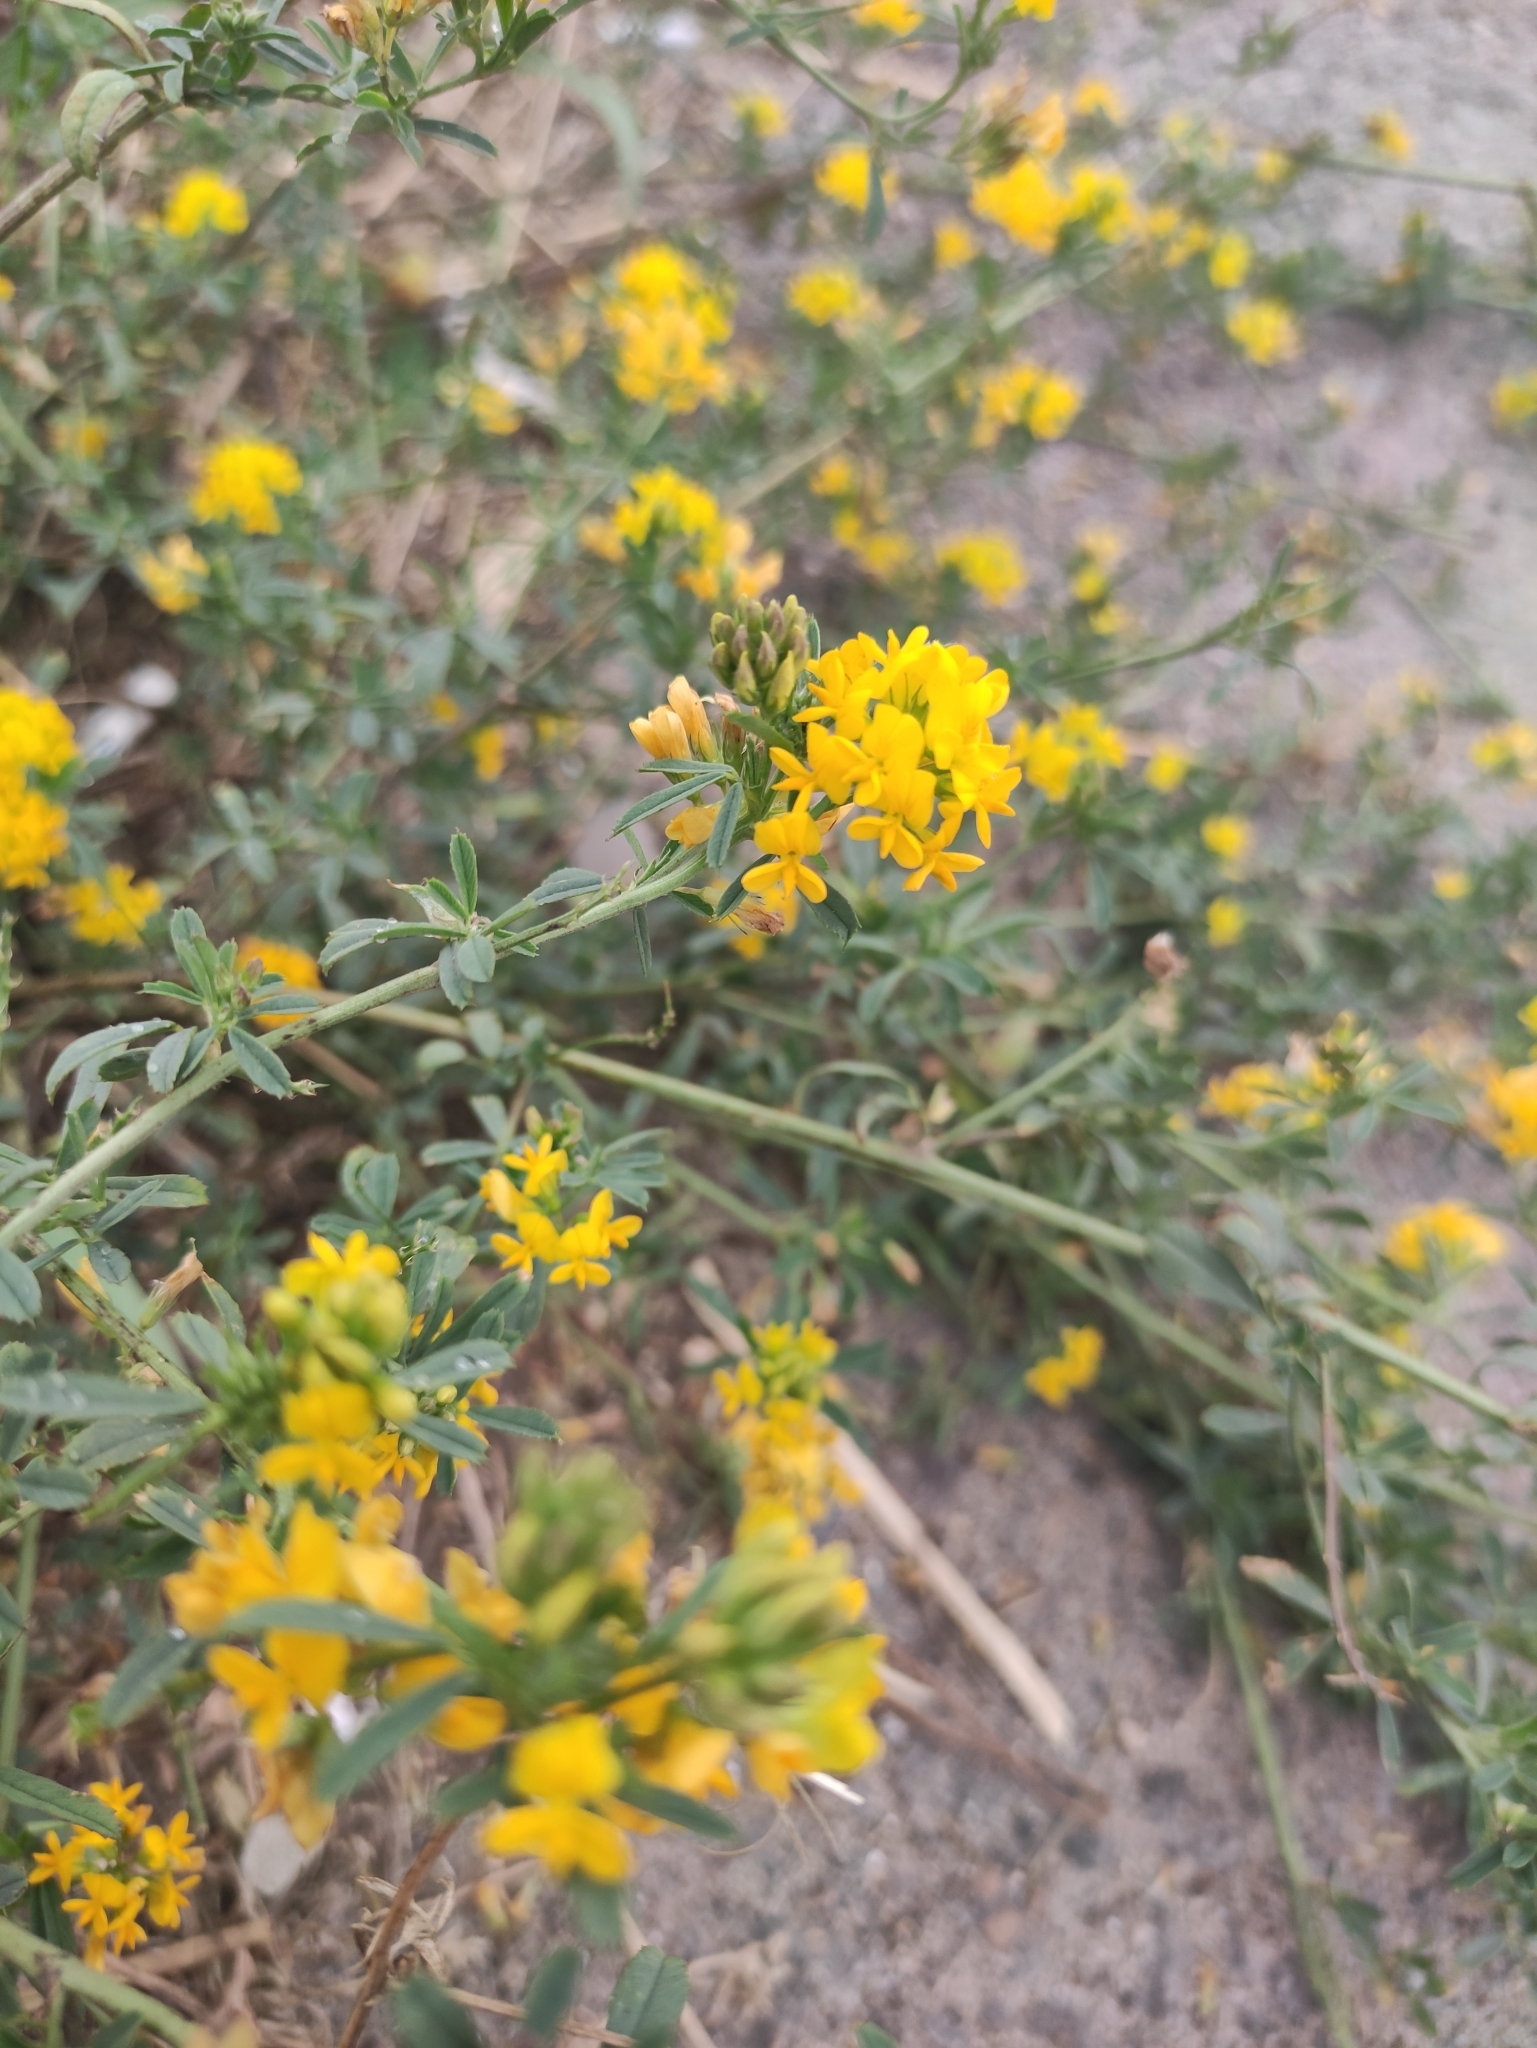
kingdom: Plantae
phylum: Tracheophyta
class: Magnoliopsida
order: Fabales
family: Fabaceae
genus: Medicago
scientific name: Medicago falcata
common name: Sickle medick
